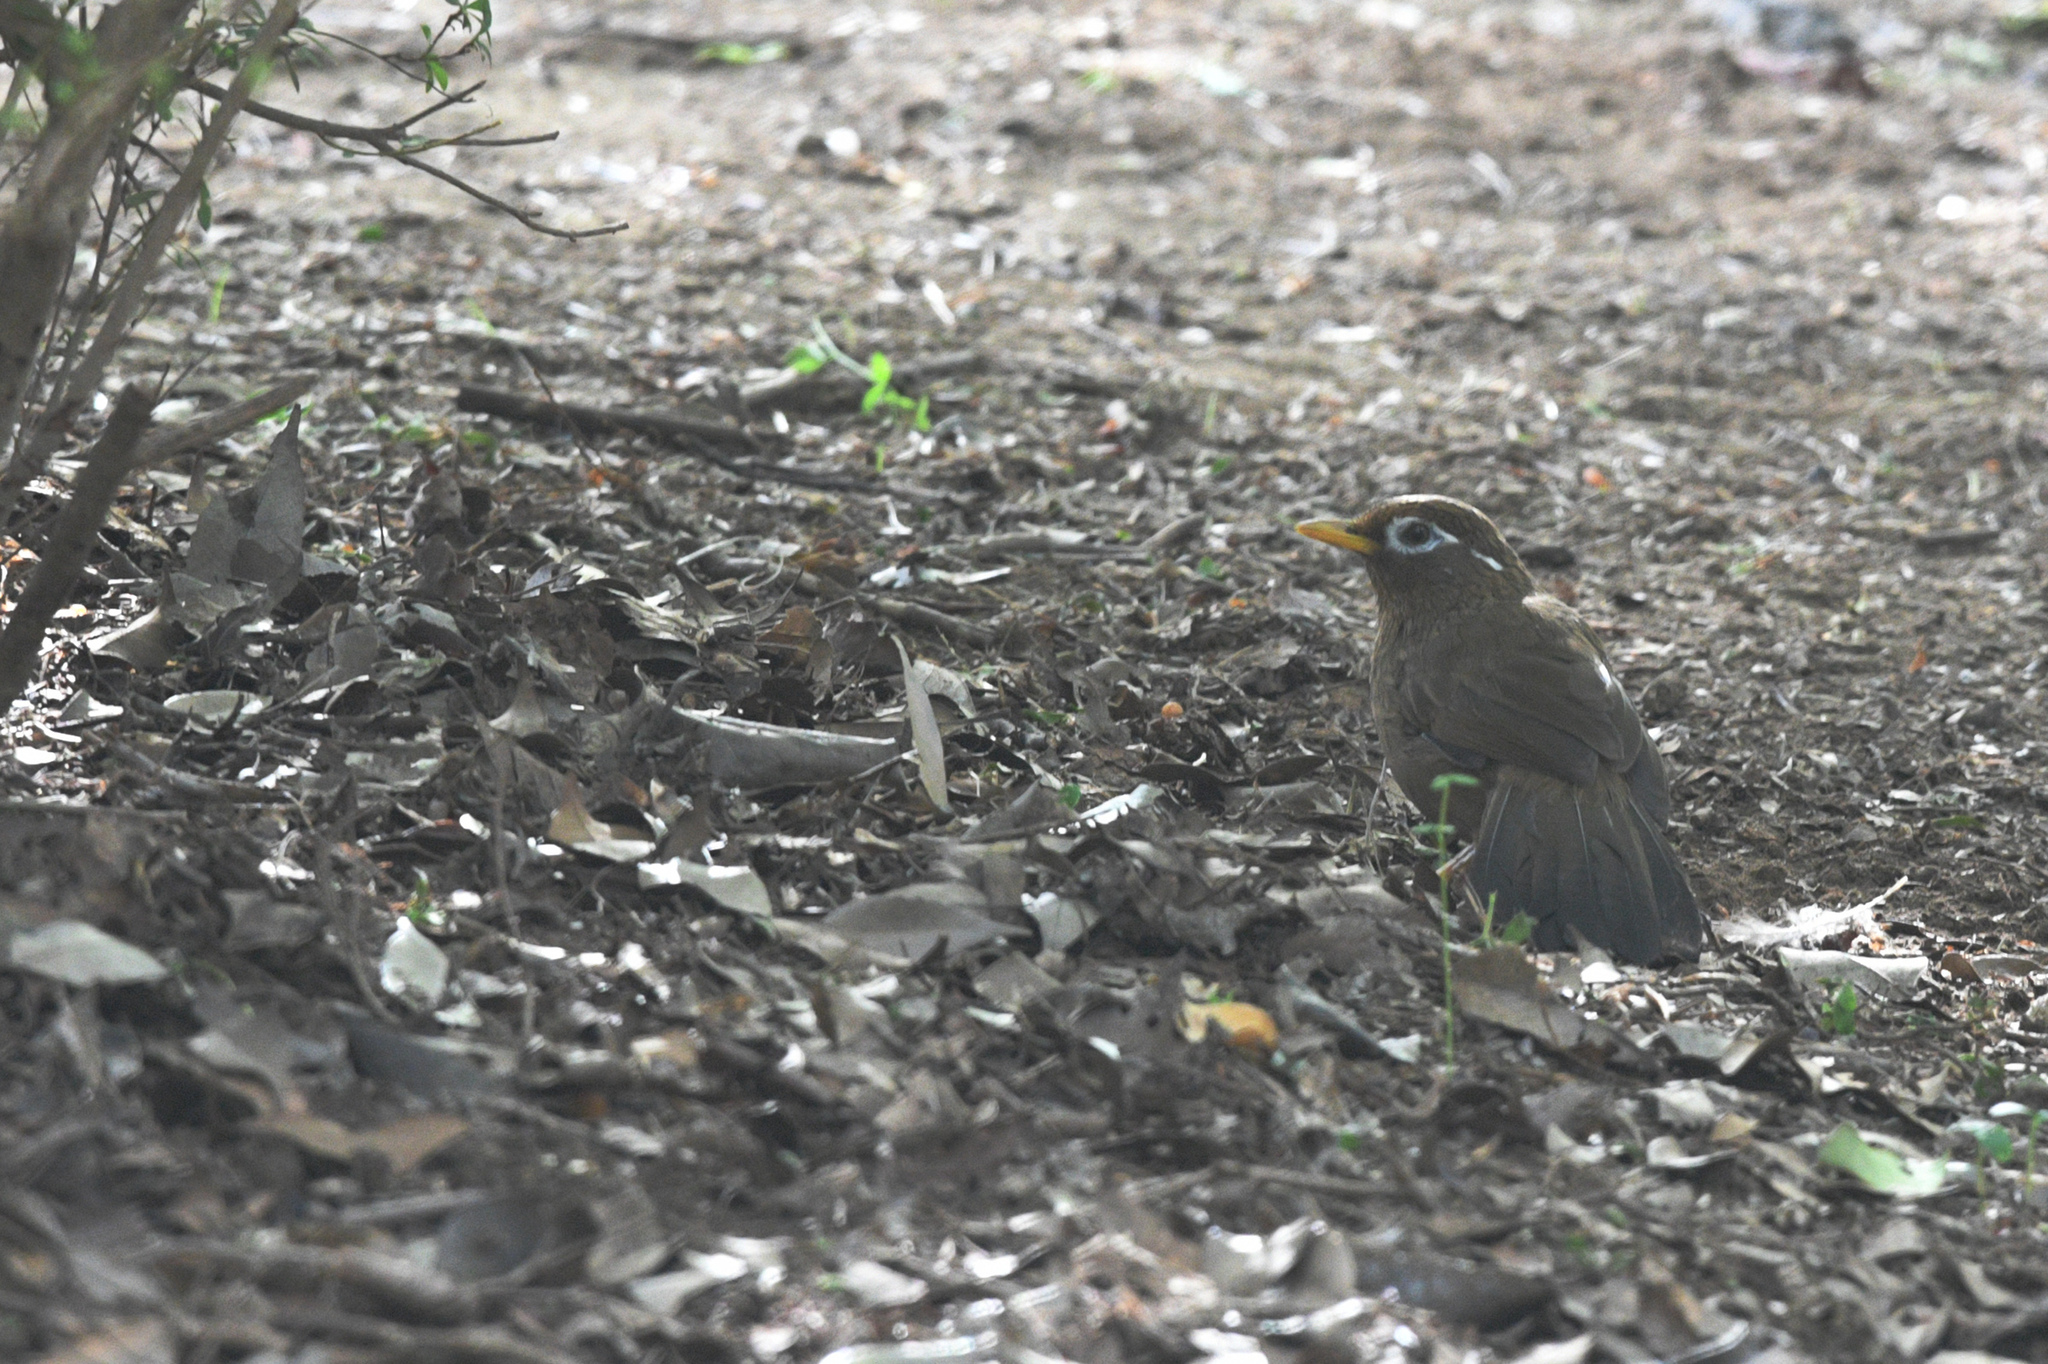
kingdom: Animalia
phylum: Chordata
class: Aves
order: Passeriformes
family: Leiothrichidae
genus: Garrulax
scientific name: Garrulax canorus
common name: Chinese hwamei
